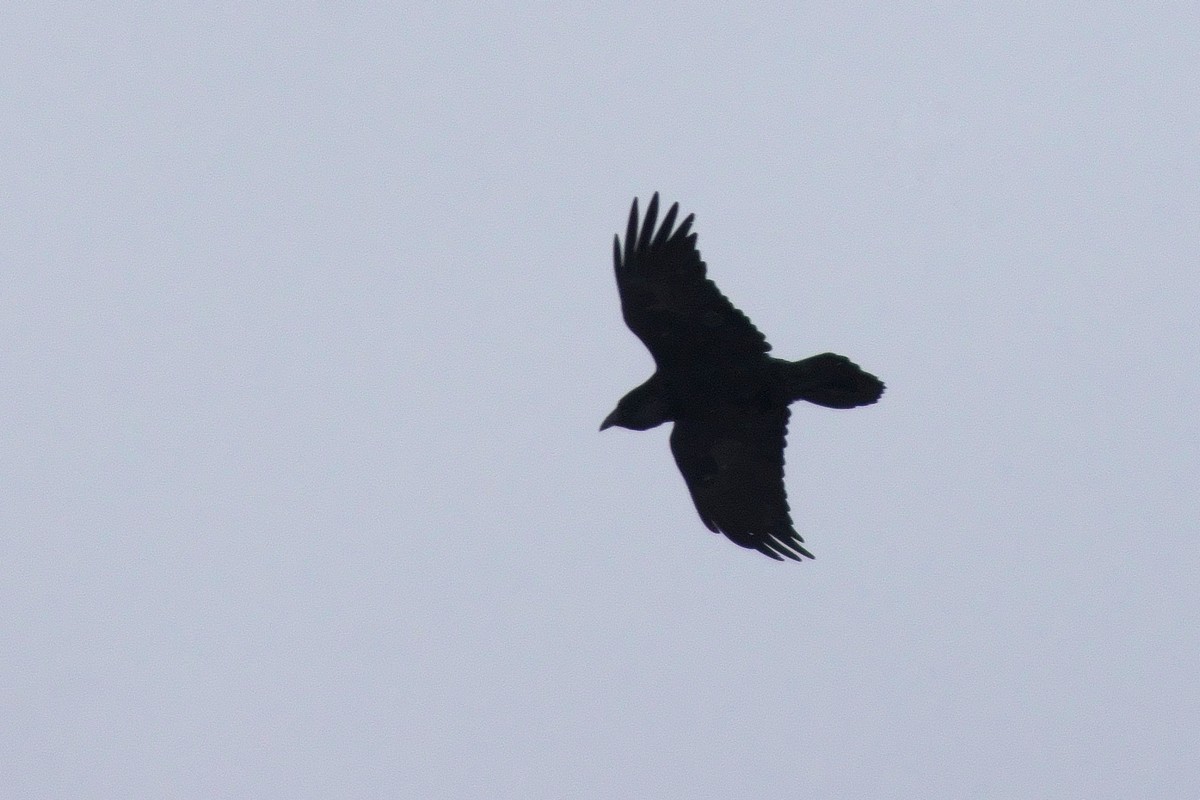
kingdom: Animalia
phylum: Chordata
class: Aves
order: Passeriformes
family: Corvidae
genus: Corvus
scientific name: Corvus corax
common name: Common raven
